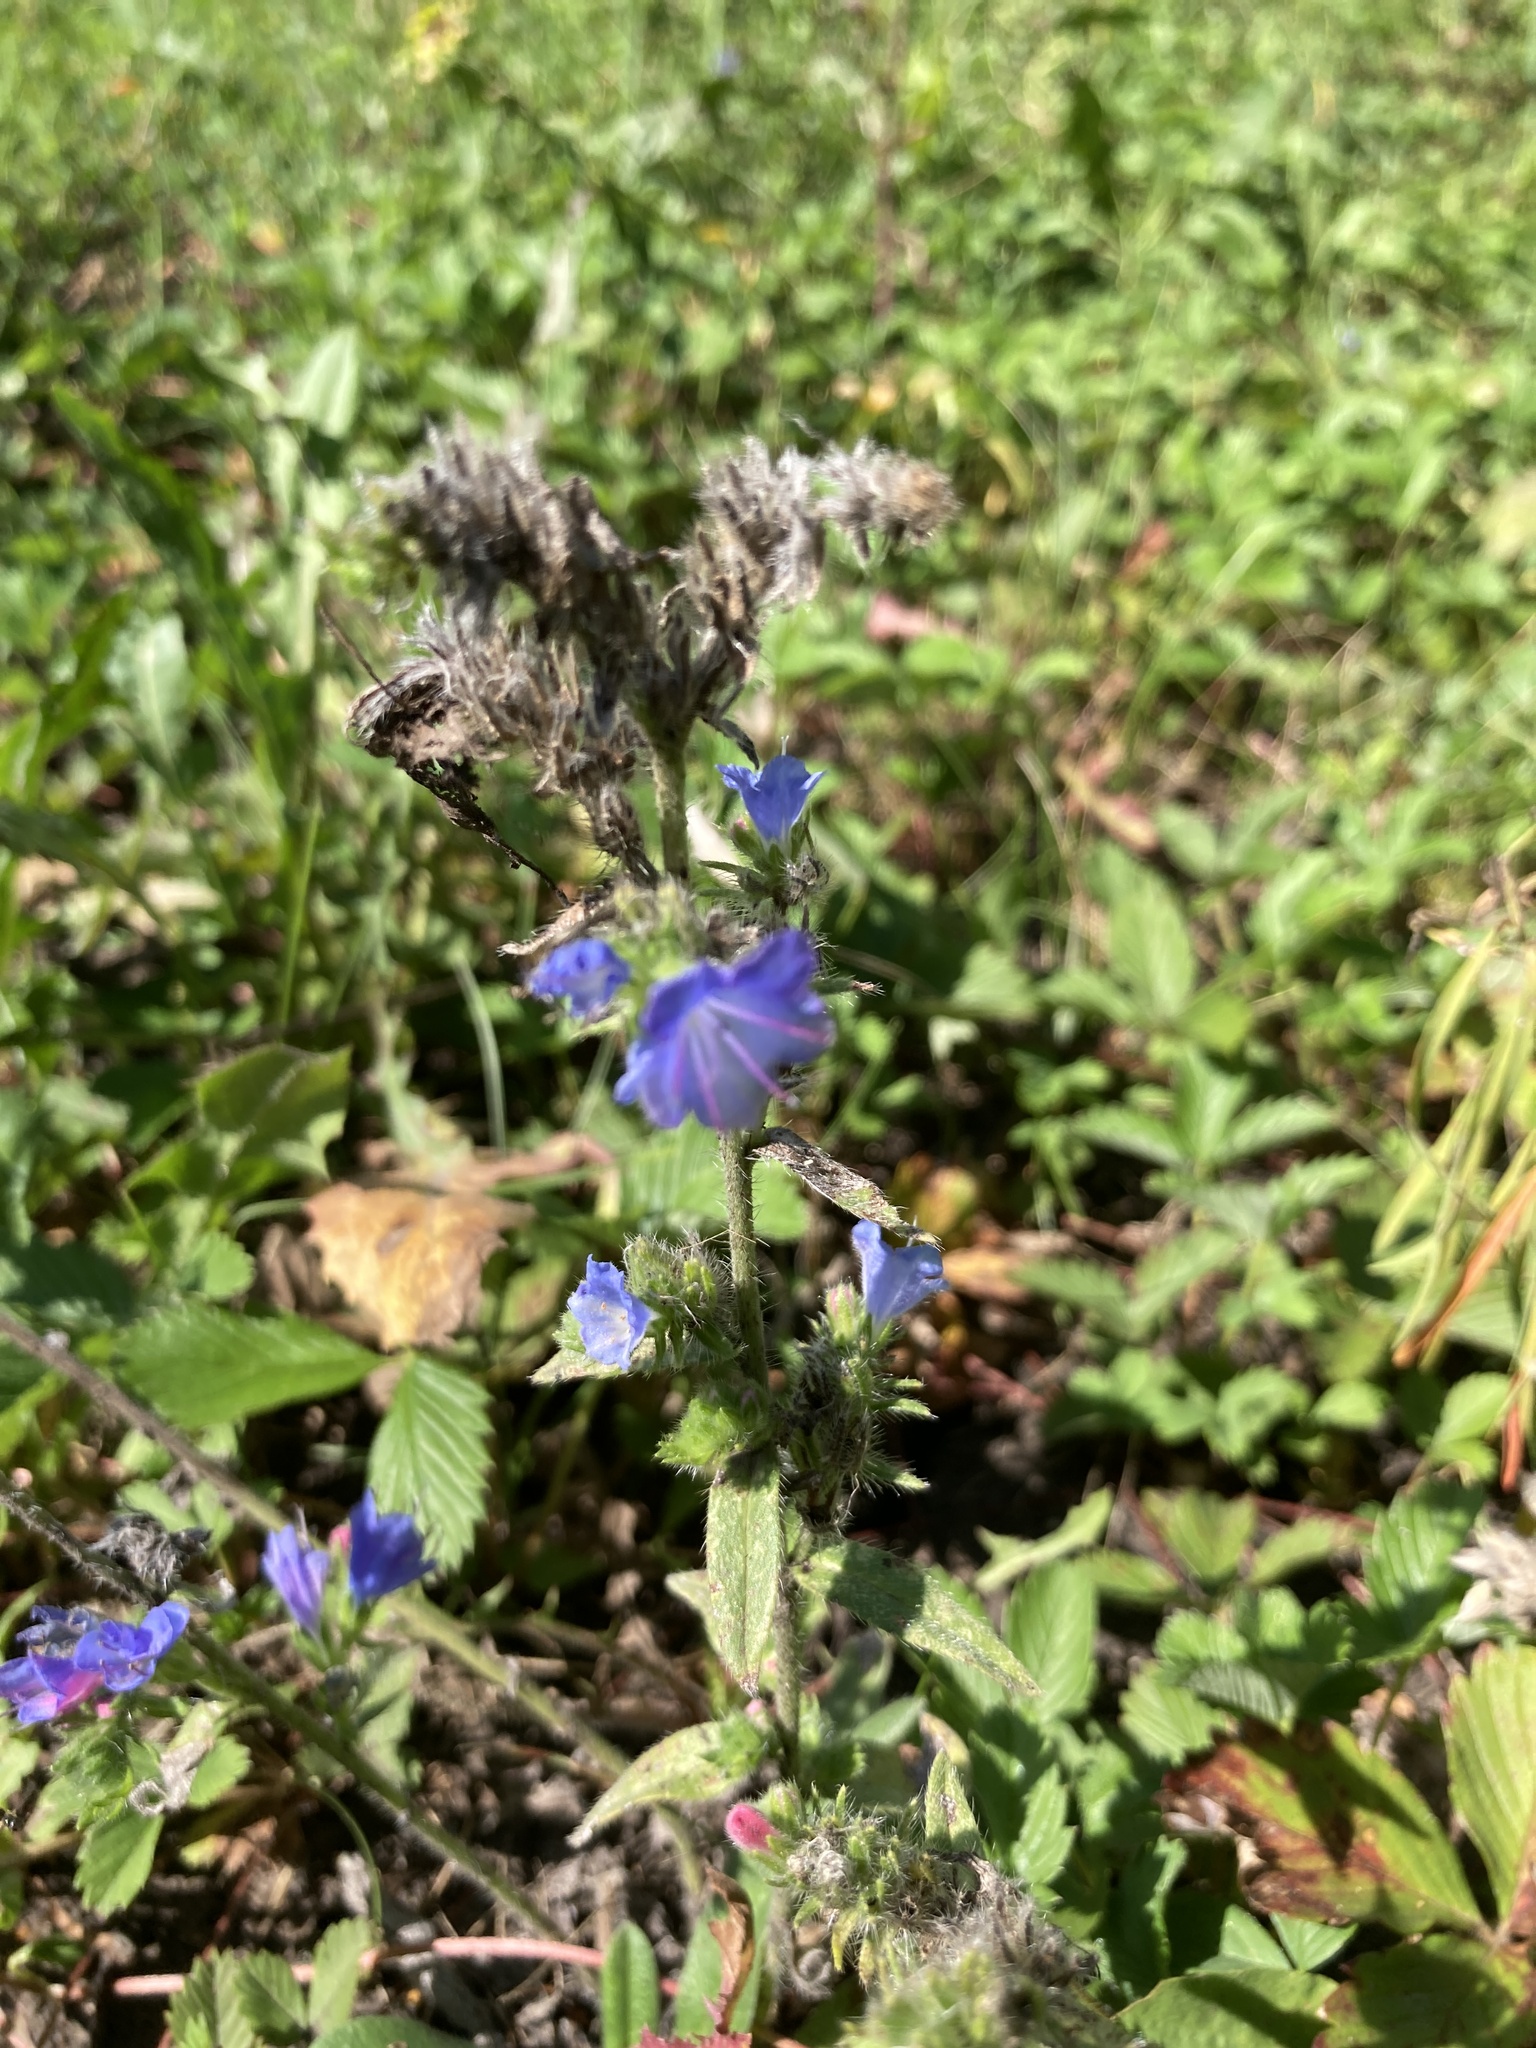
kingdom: Plantae
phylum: Tracheophyta
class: Magnoliopsida
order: Boraginales
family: Boraginaceae
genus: Echium
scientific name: Echium vulgare
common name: Common viper's bugloss
